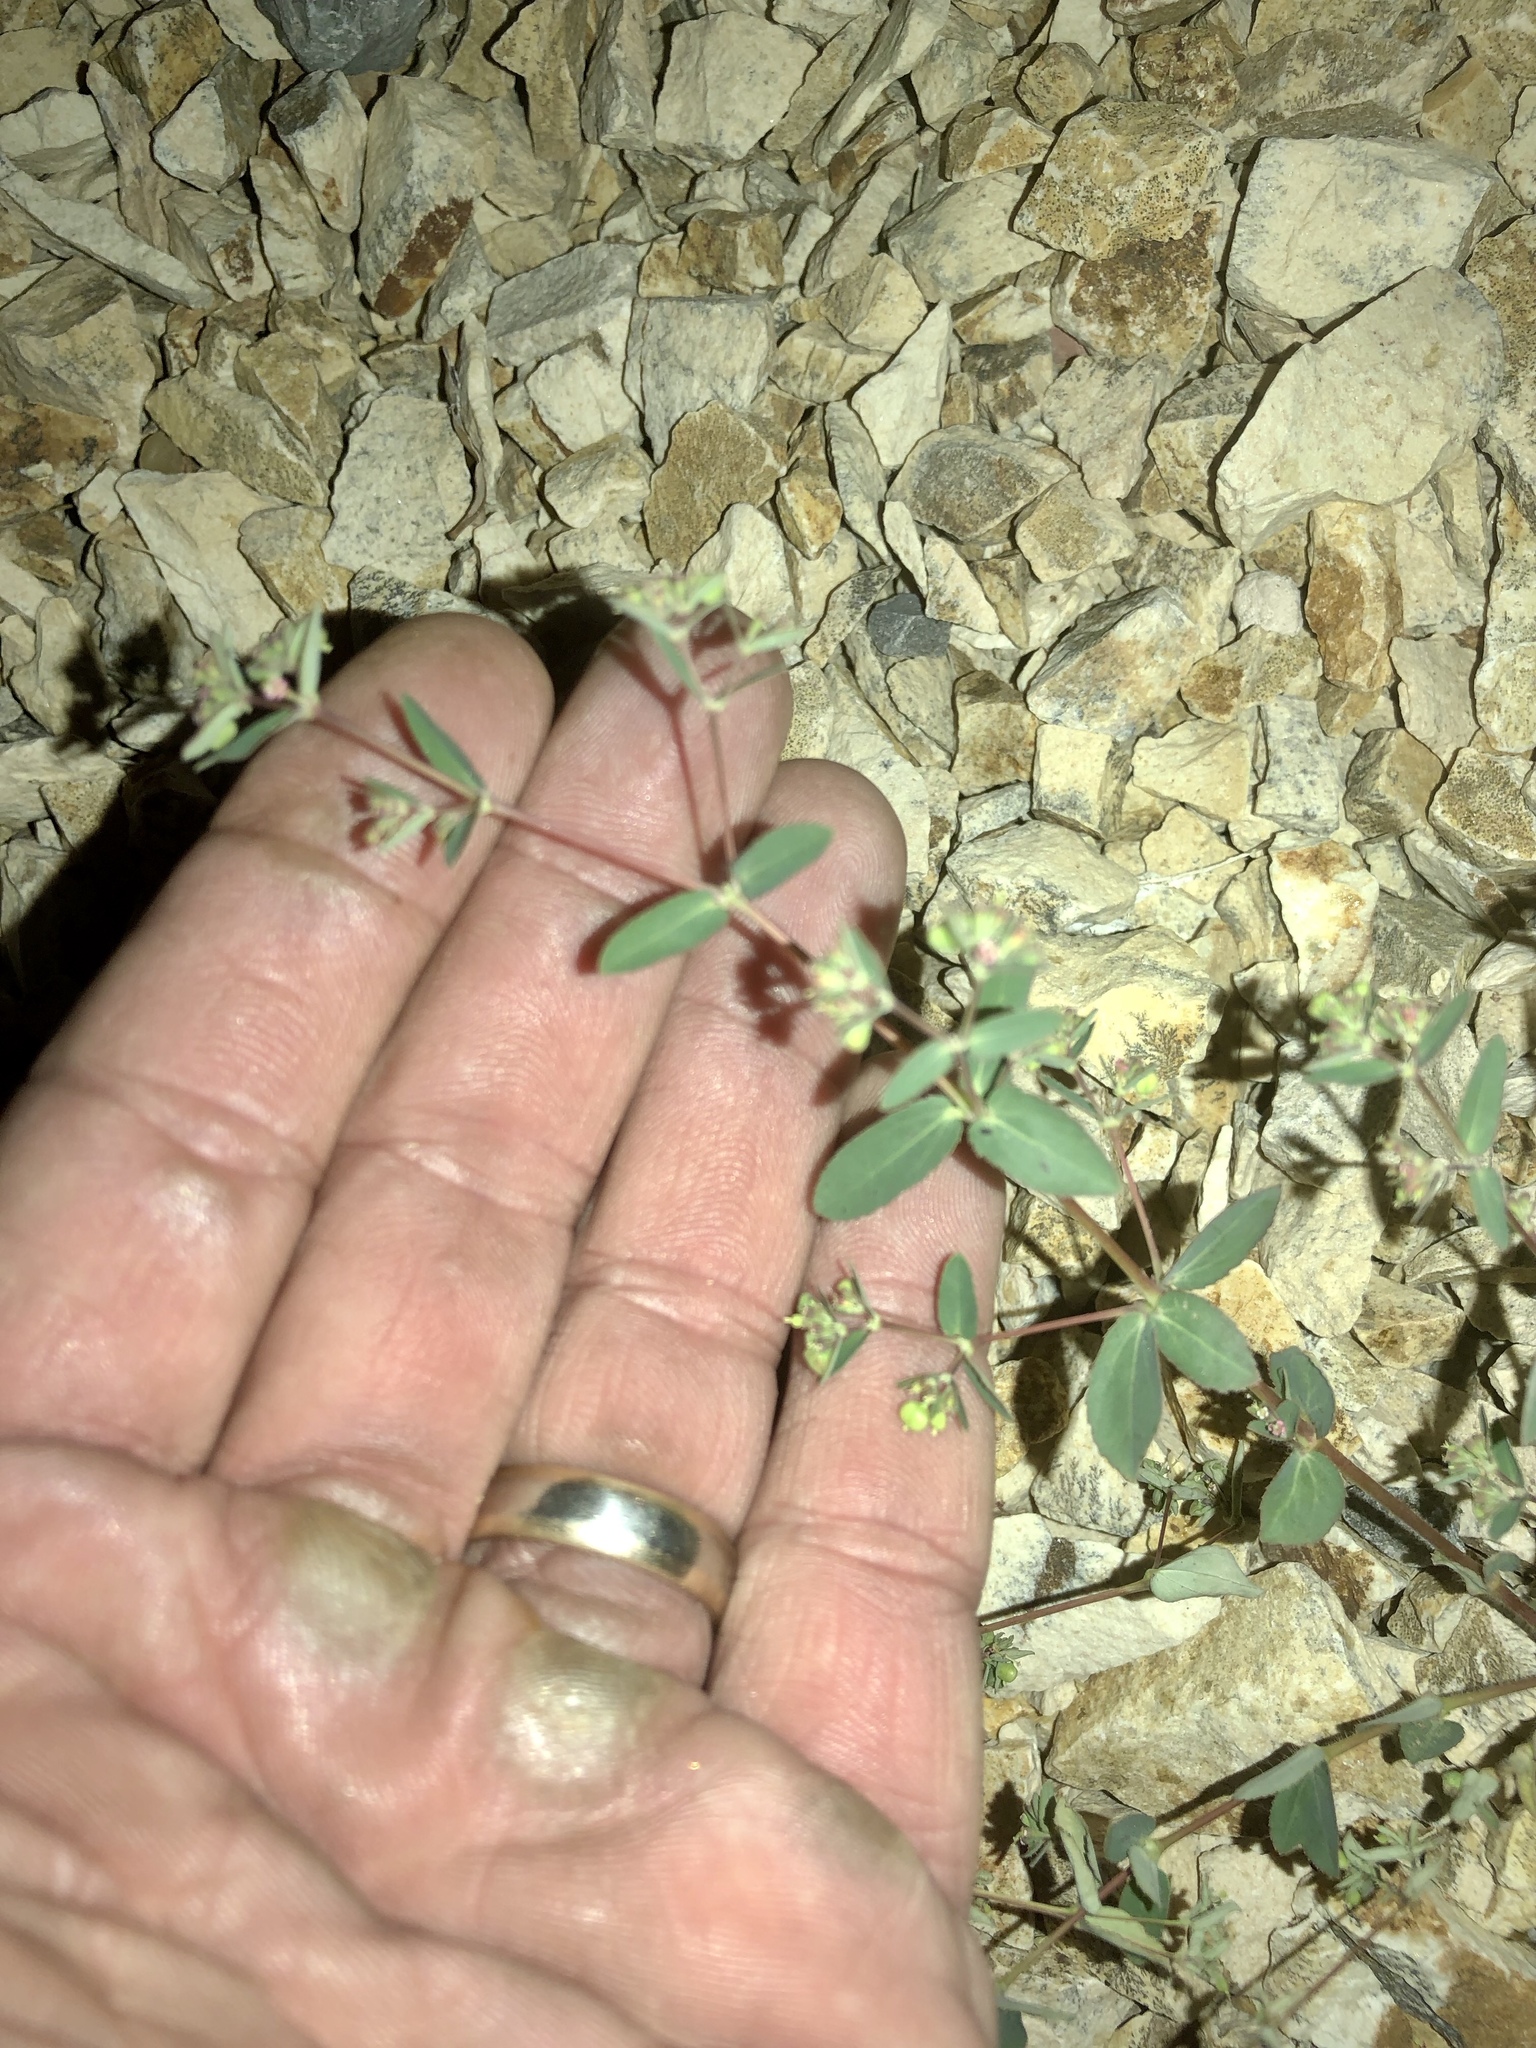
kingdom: Plantae
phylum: Tracheophyta
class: Magnoliopsida
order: Malpighiales
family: Euphorbiaceae
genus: Euphorbia
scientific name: Euphorbia hyssopifolia
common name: Hyssopleaf sandmat
